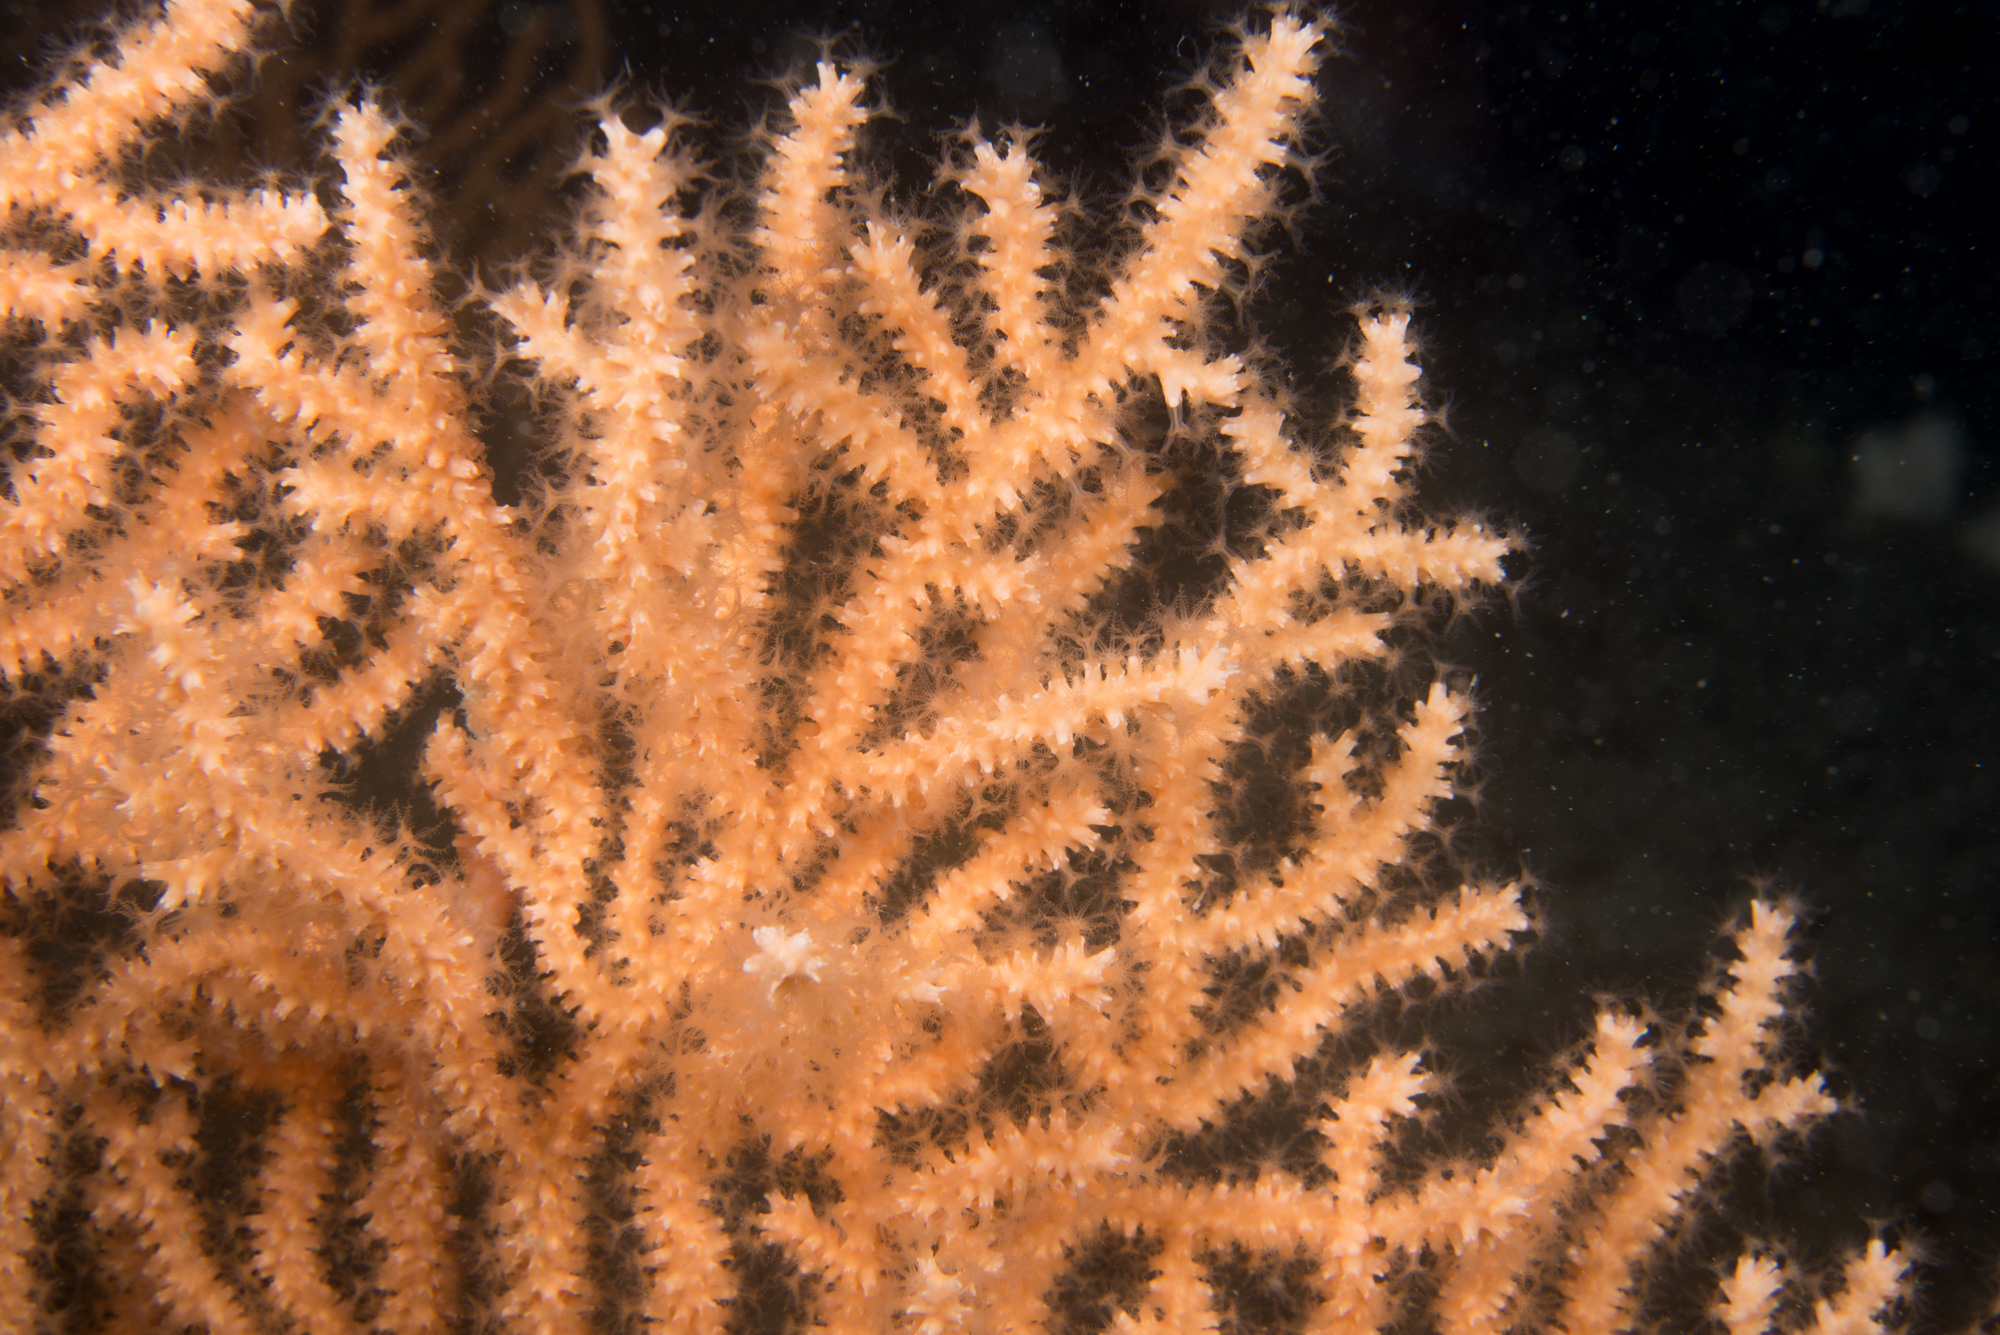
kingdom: Animalia
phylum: Cnidaria
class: Anthozoa
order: Malacalcyonacea
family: Eunicellidae
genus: Eunicella
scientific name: Eunicella verrucosa
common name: Pink sea-fan
